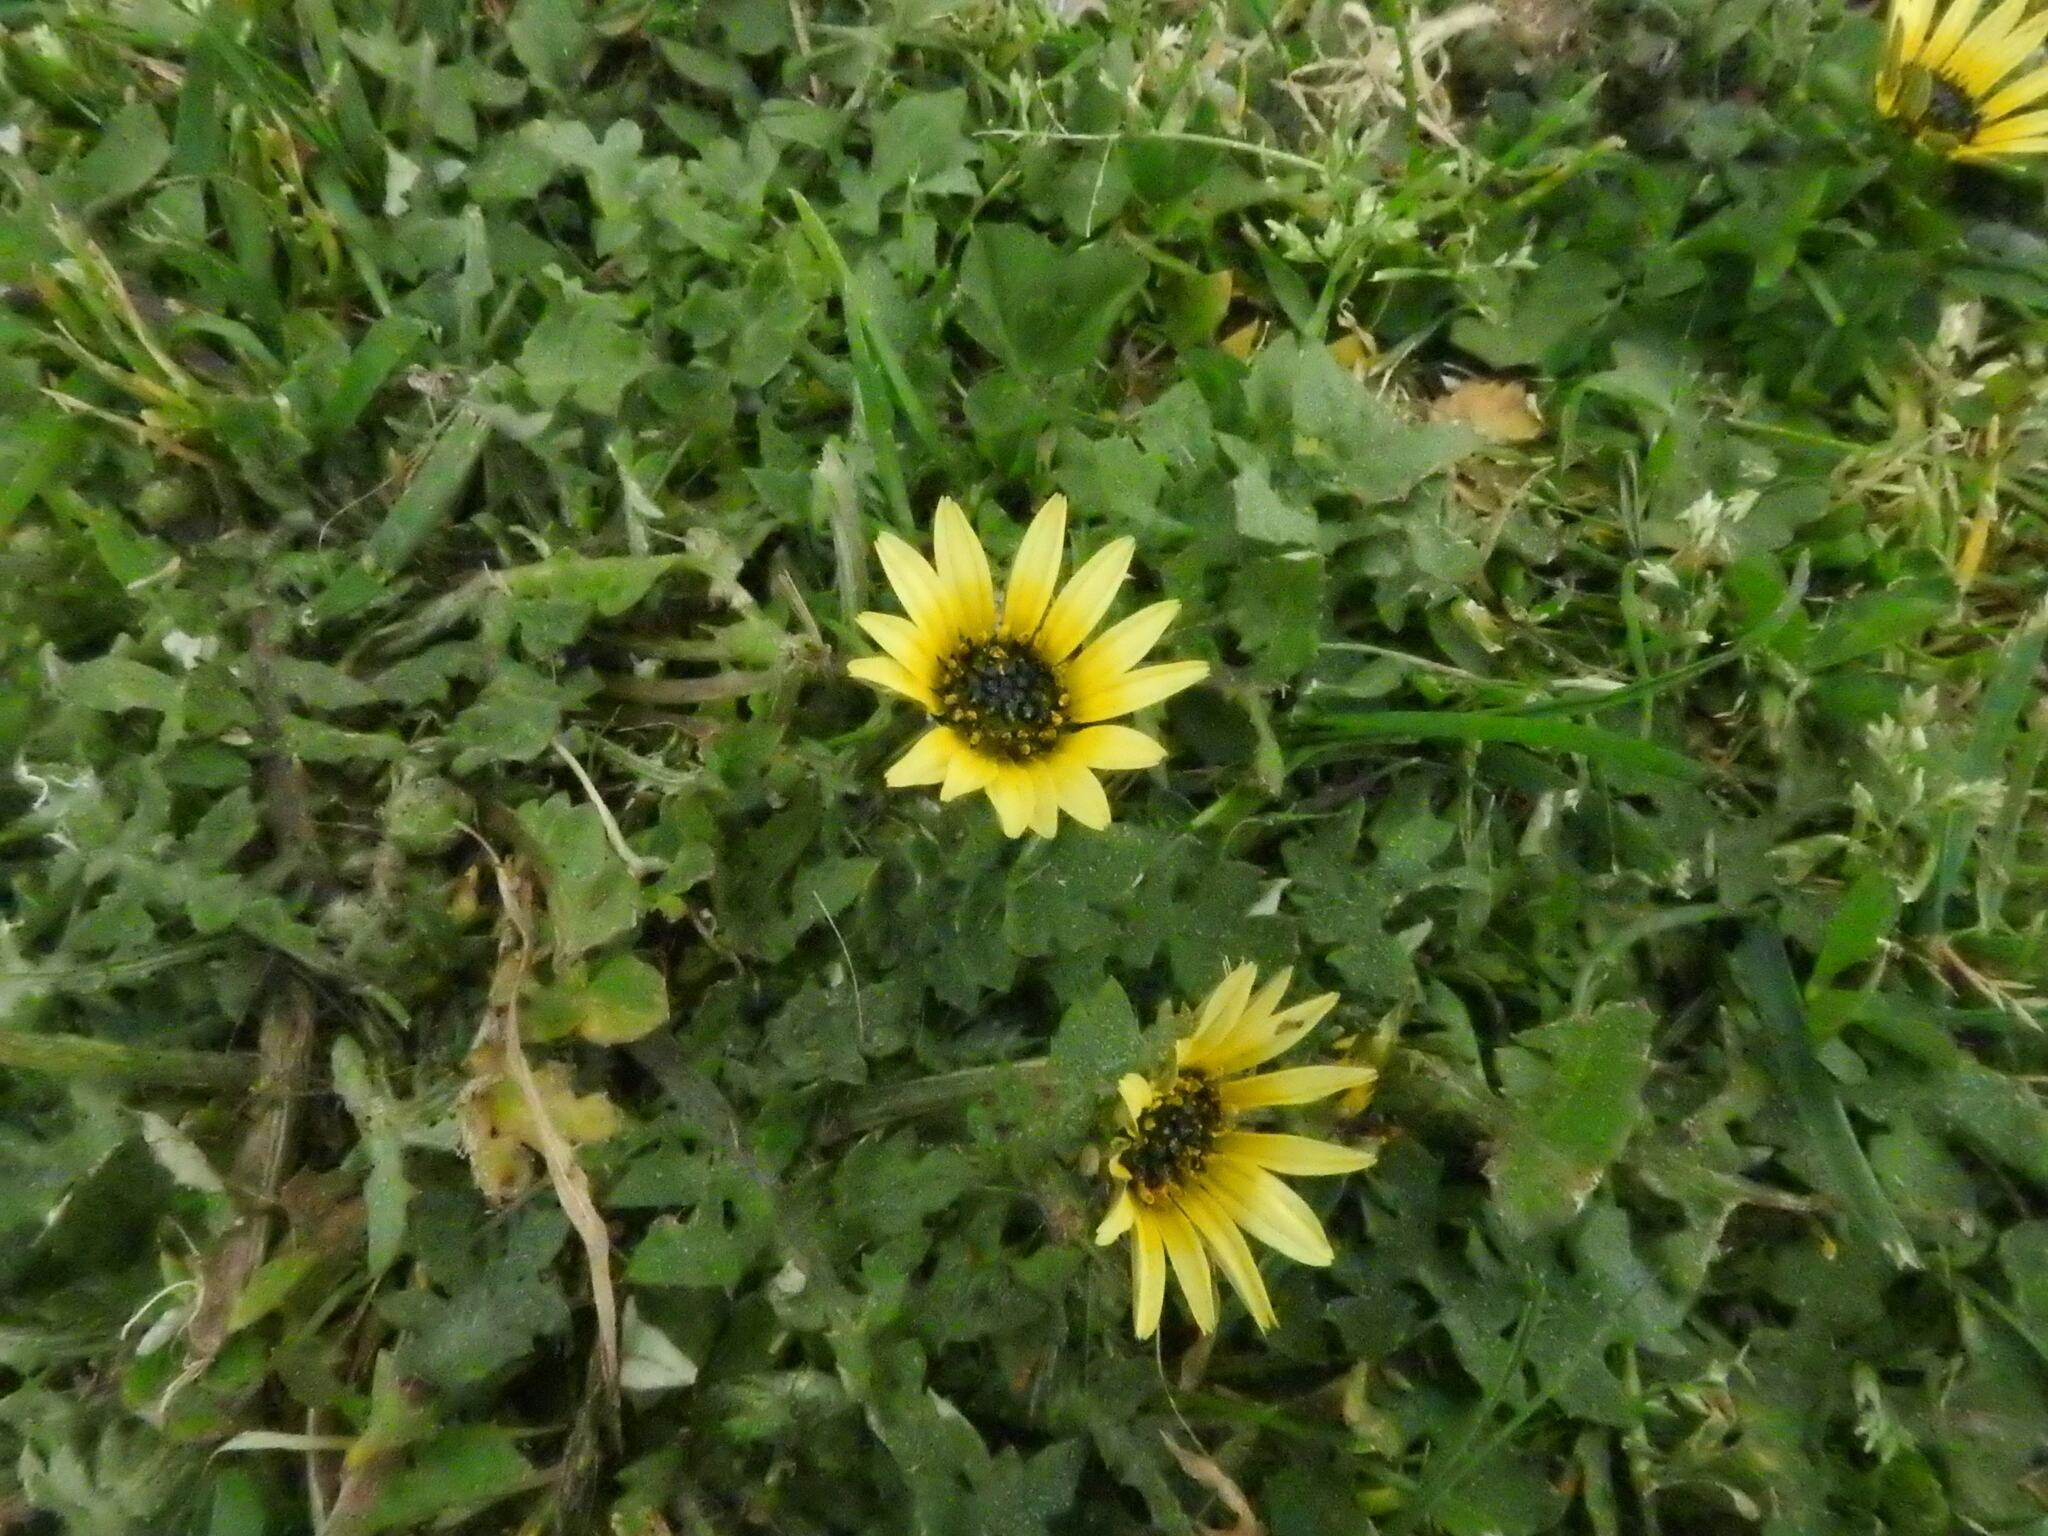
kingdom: Plantae
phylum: Tracheophyta
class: Magnoliopsida
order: Asterales
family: Asteraceae
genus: Arctotheca
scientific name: Arctotheca calendula
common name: Capeweed
